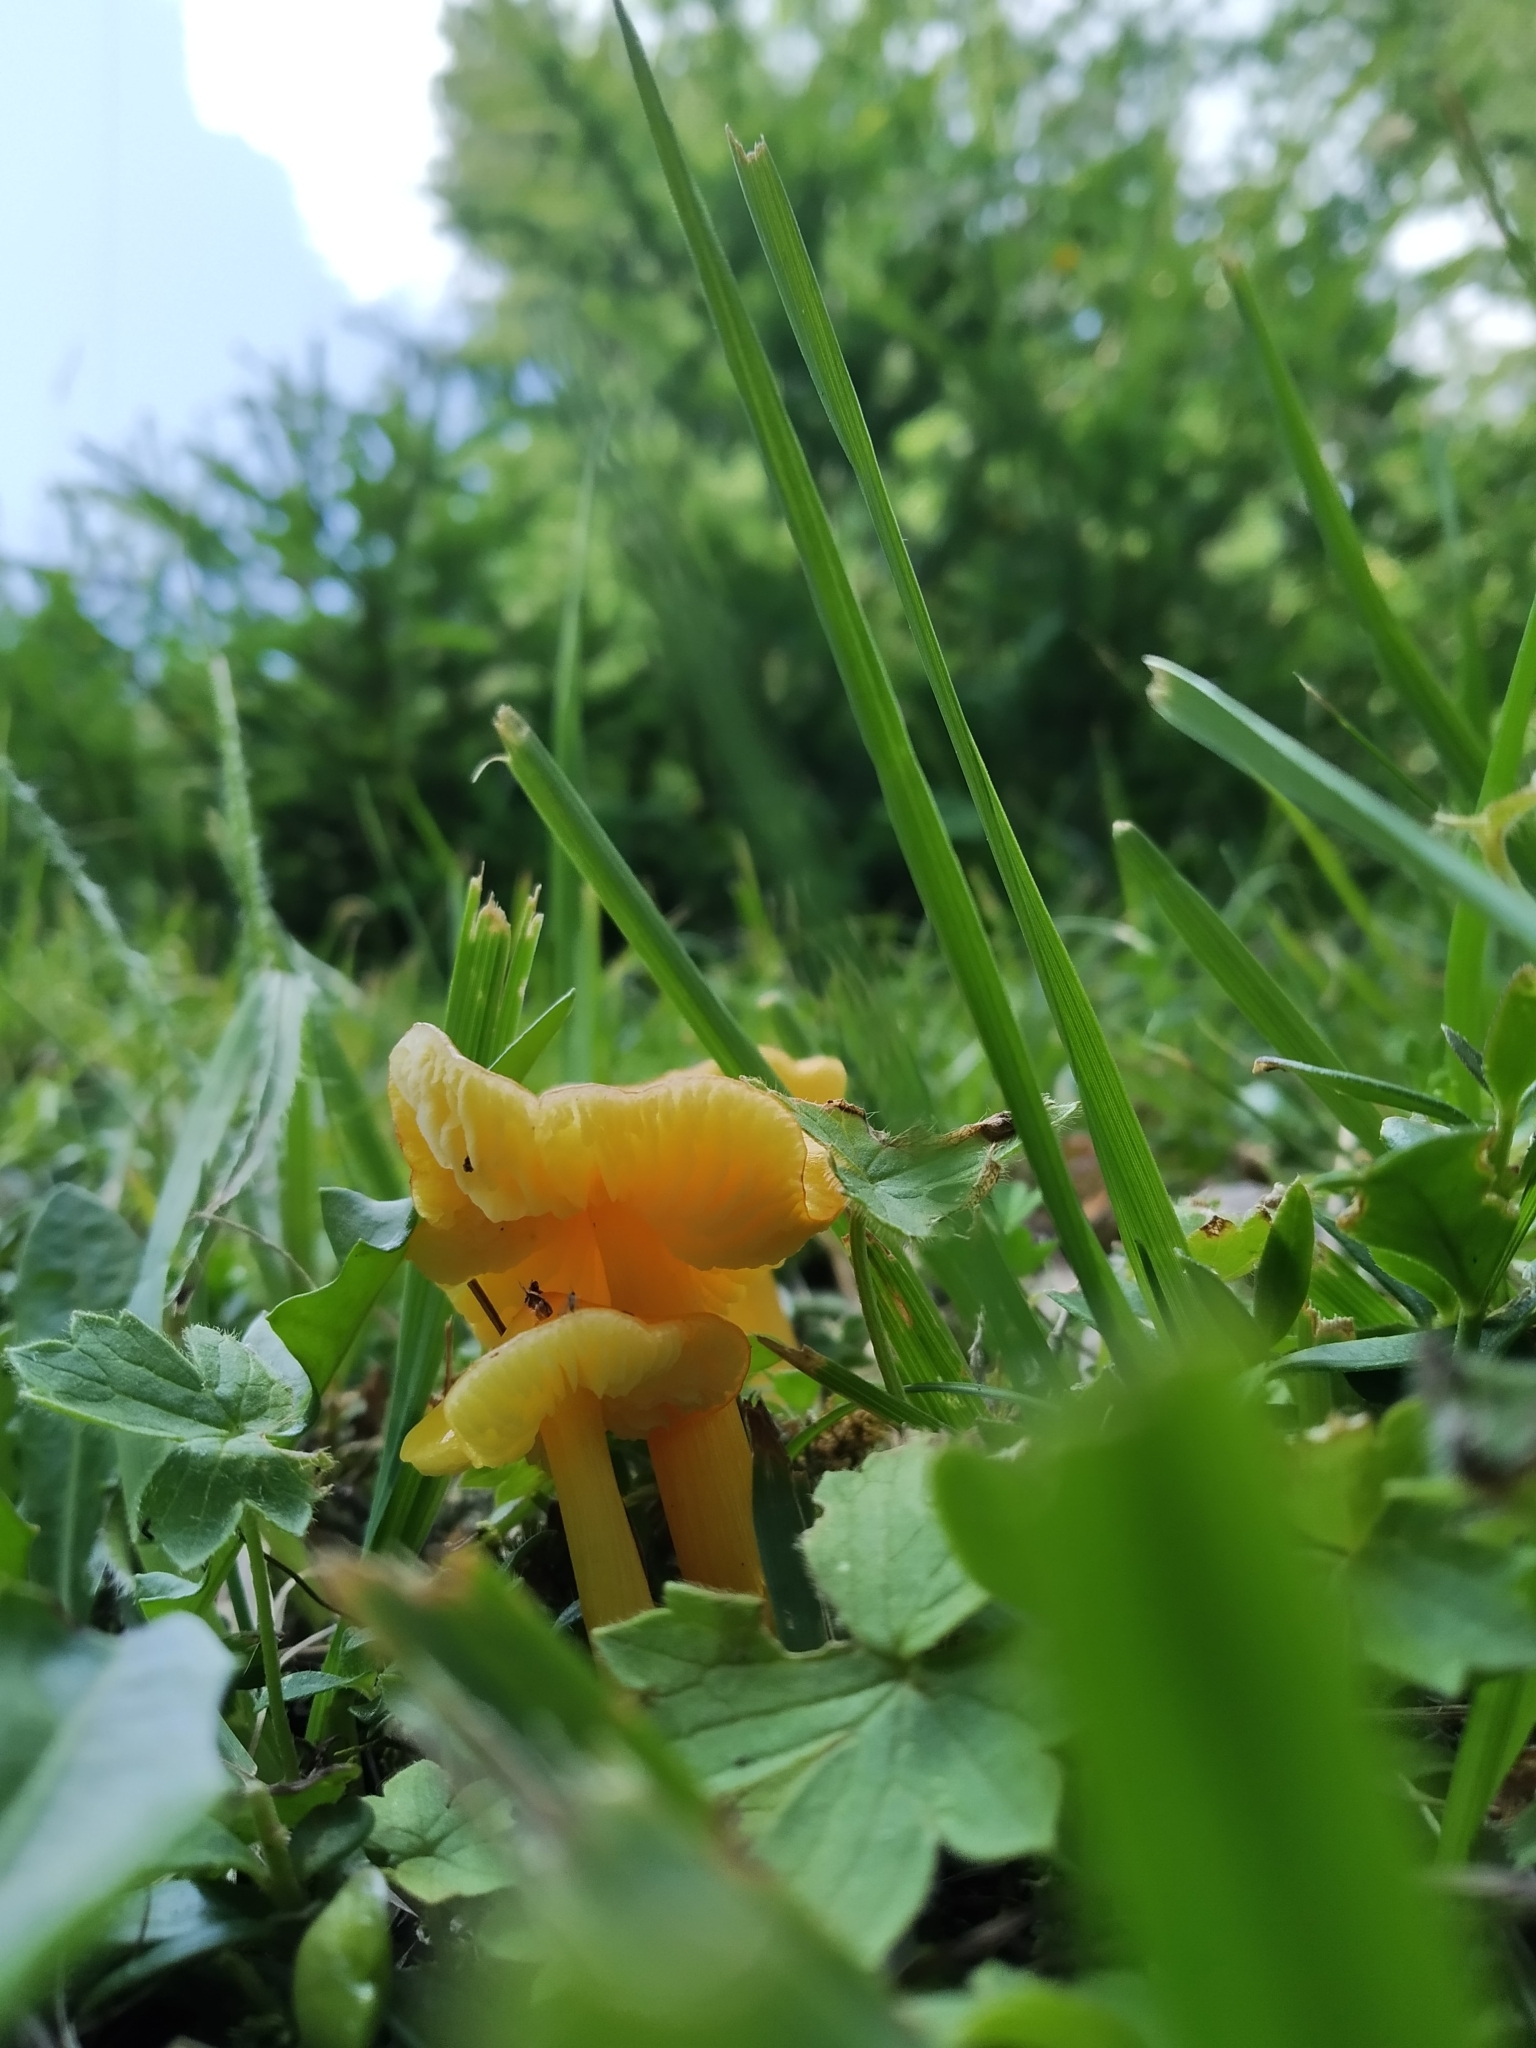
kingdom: Fungi
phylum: Basidiomycota
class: Agaricomycetes
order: Agaricales
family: Hygrophoraceae
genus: Hygrocybe
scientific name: Hygrocybe acutoconica
